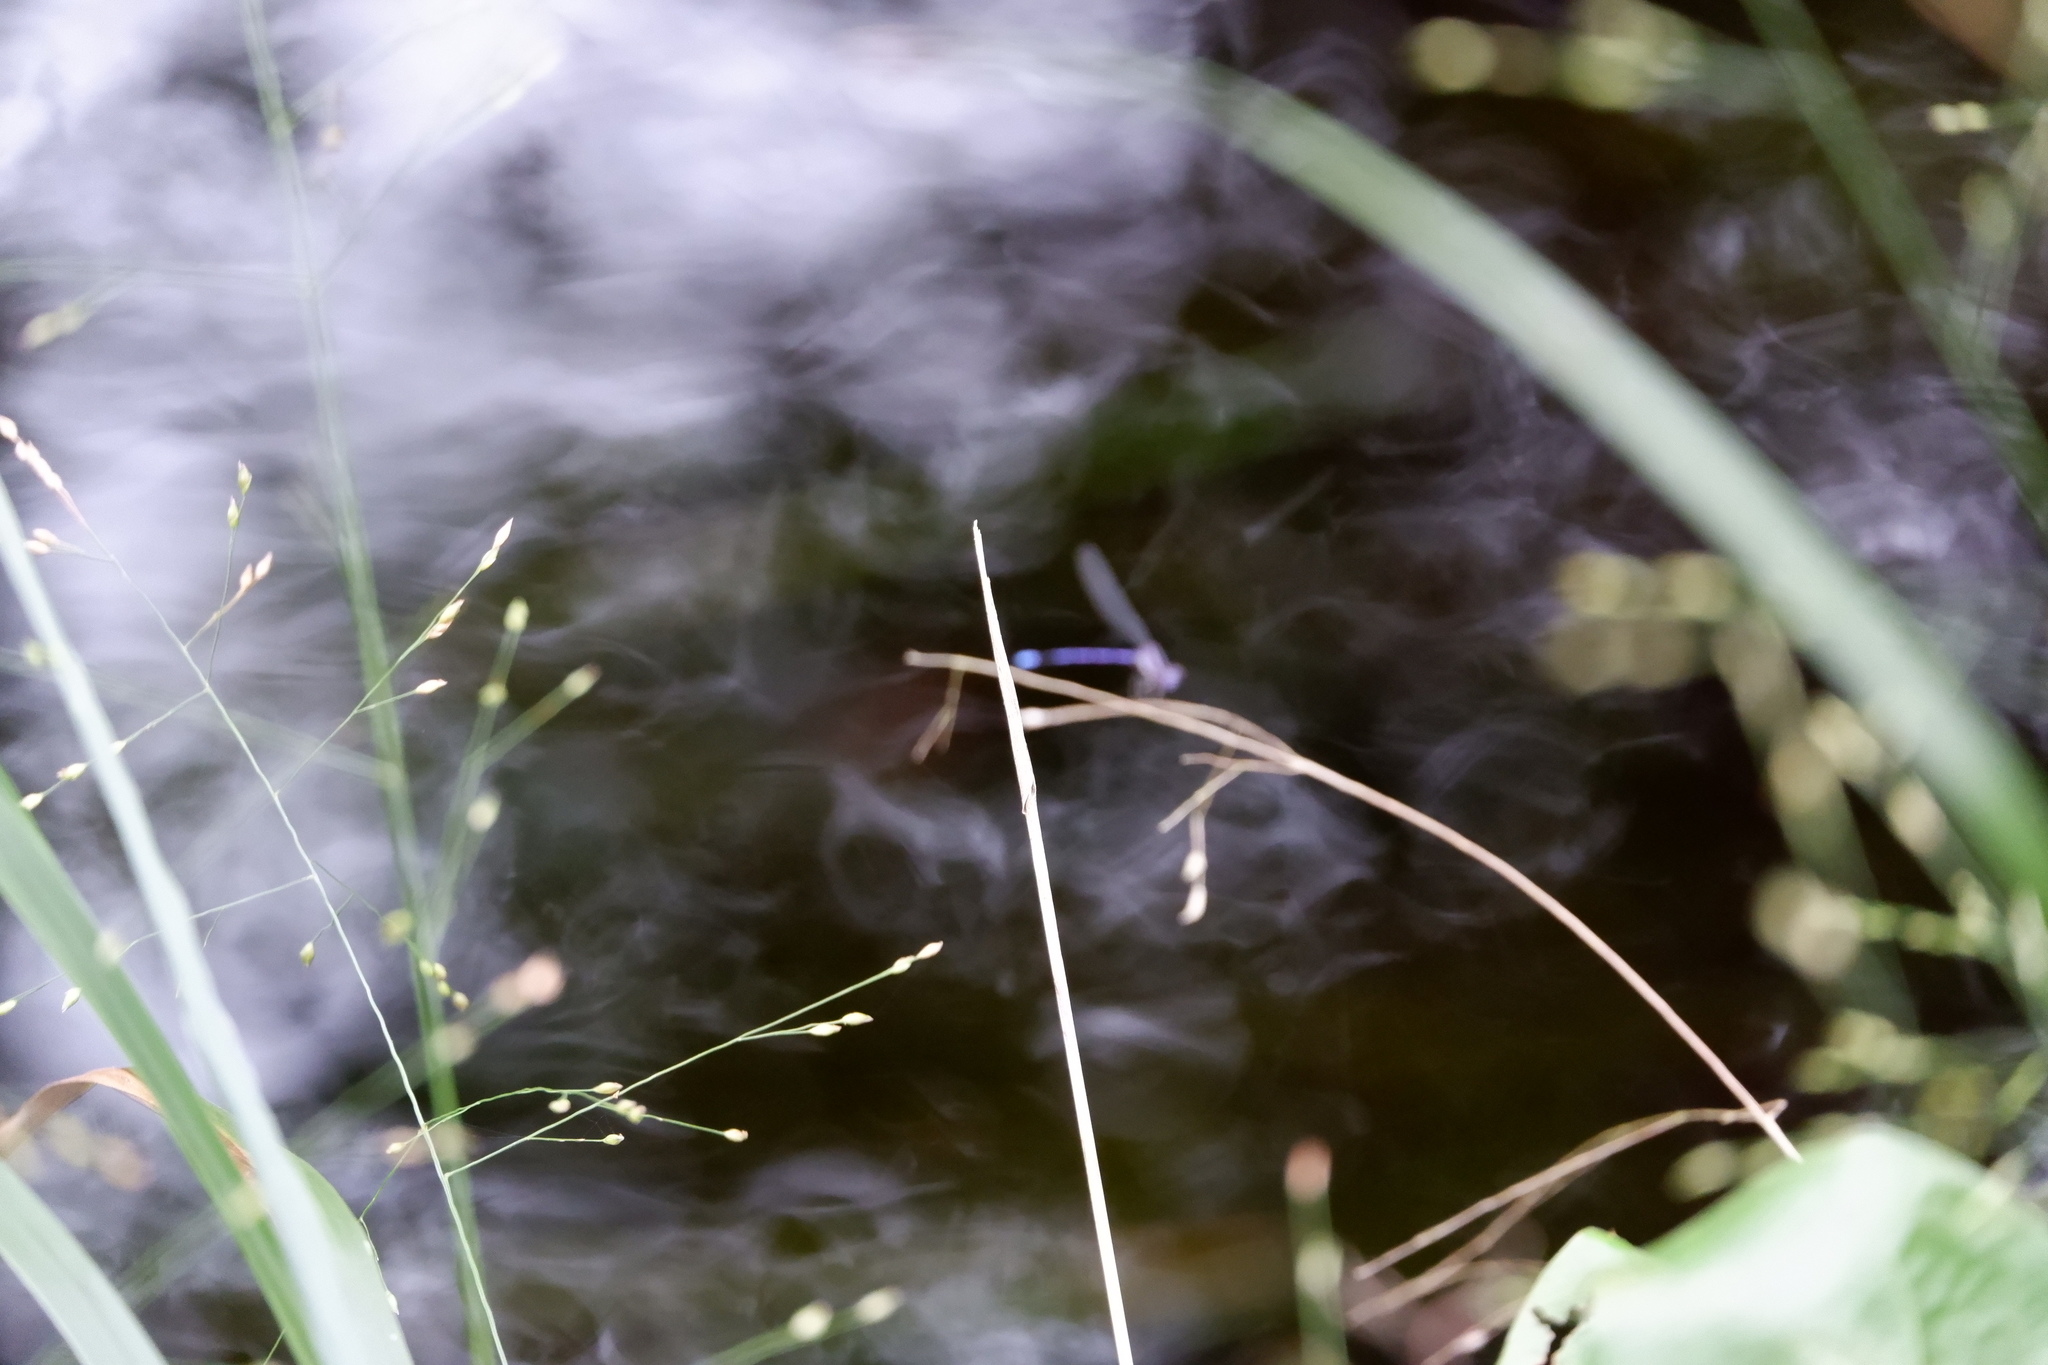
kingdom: Animalia
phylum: Arthropoda
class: Insecta
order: Odonata
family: Coenagrionidae
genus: Argia
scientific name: Argia fumipennis
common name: Variable dancer
